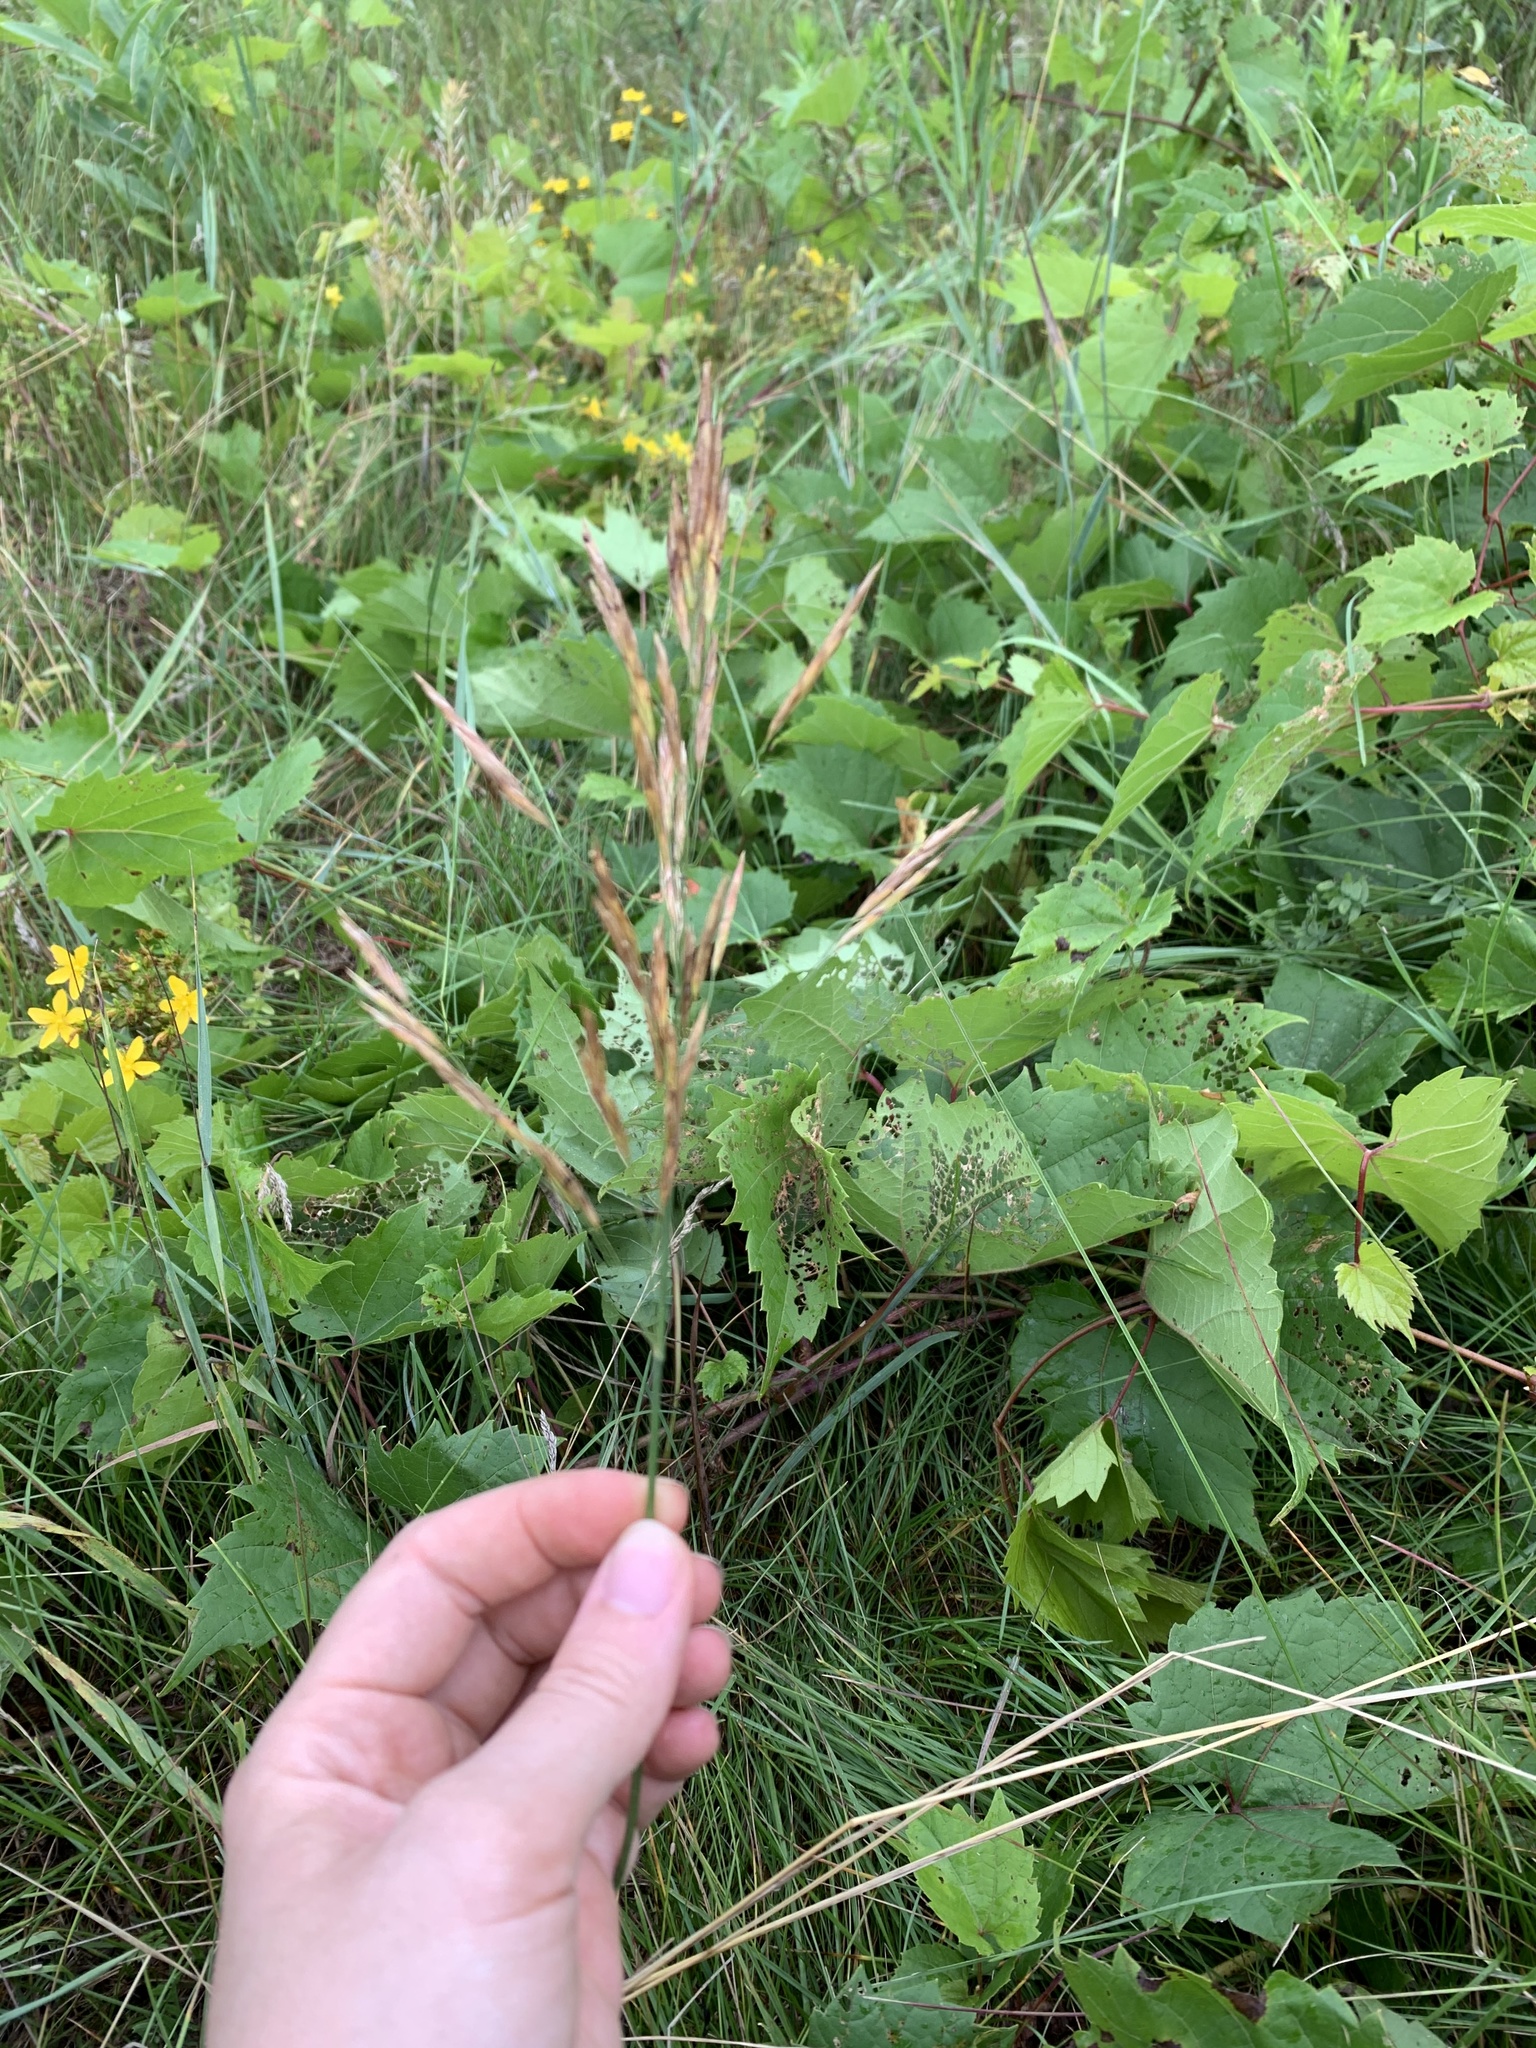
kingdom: Plantae
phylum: Tracheophyta
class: Liliopsida
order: Poales
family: Poaceae
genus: Bromus
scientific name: Bromus inermis
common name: Smooth brome
